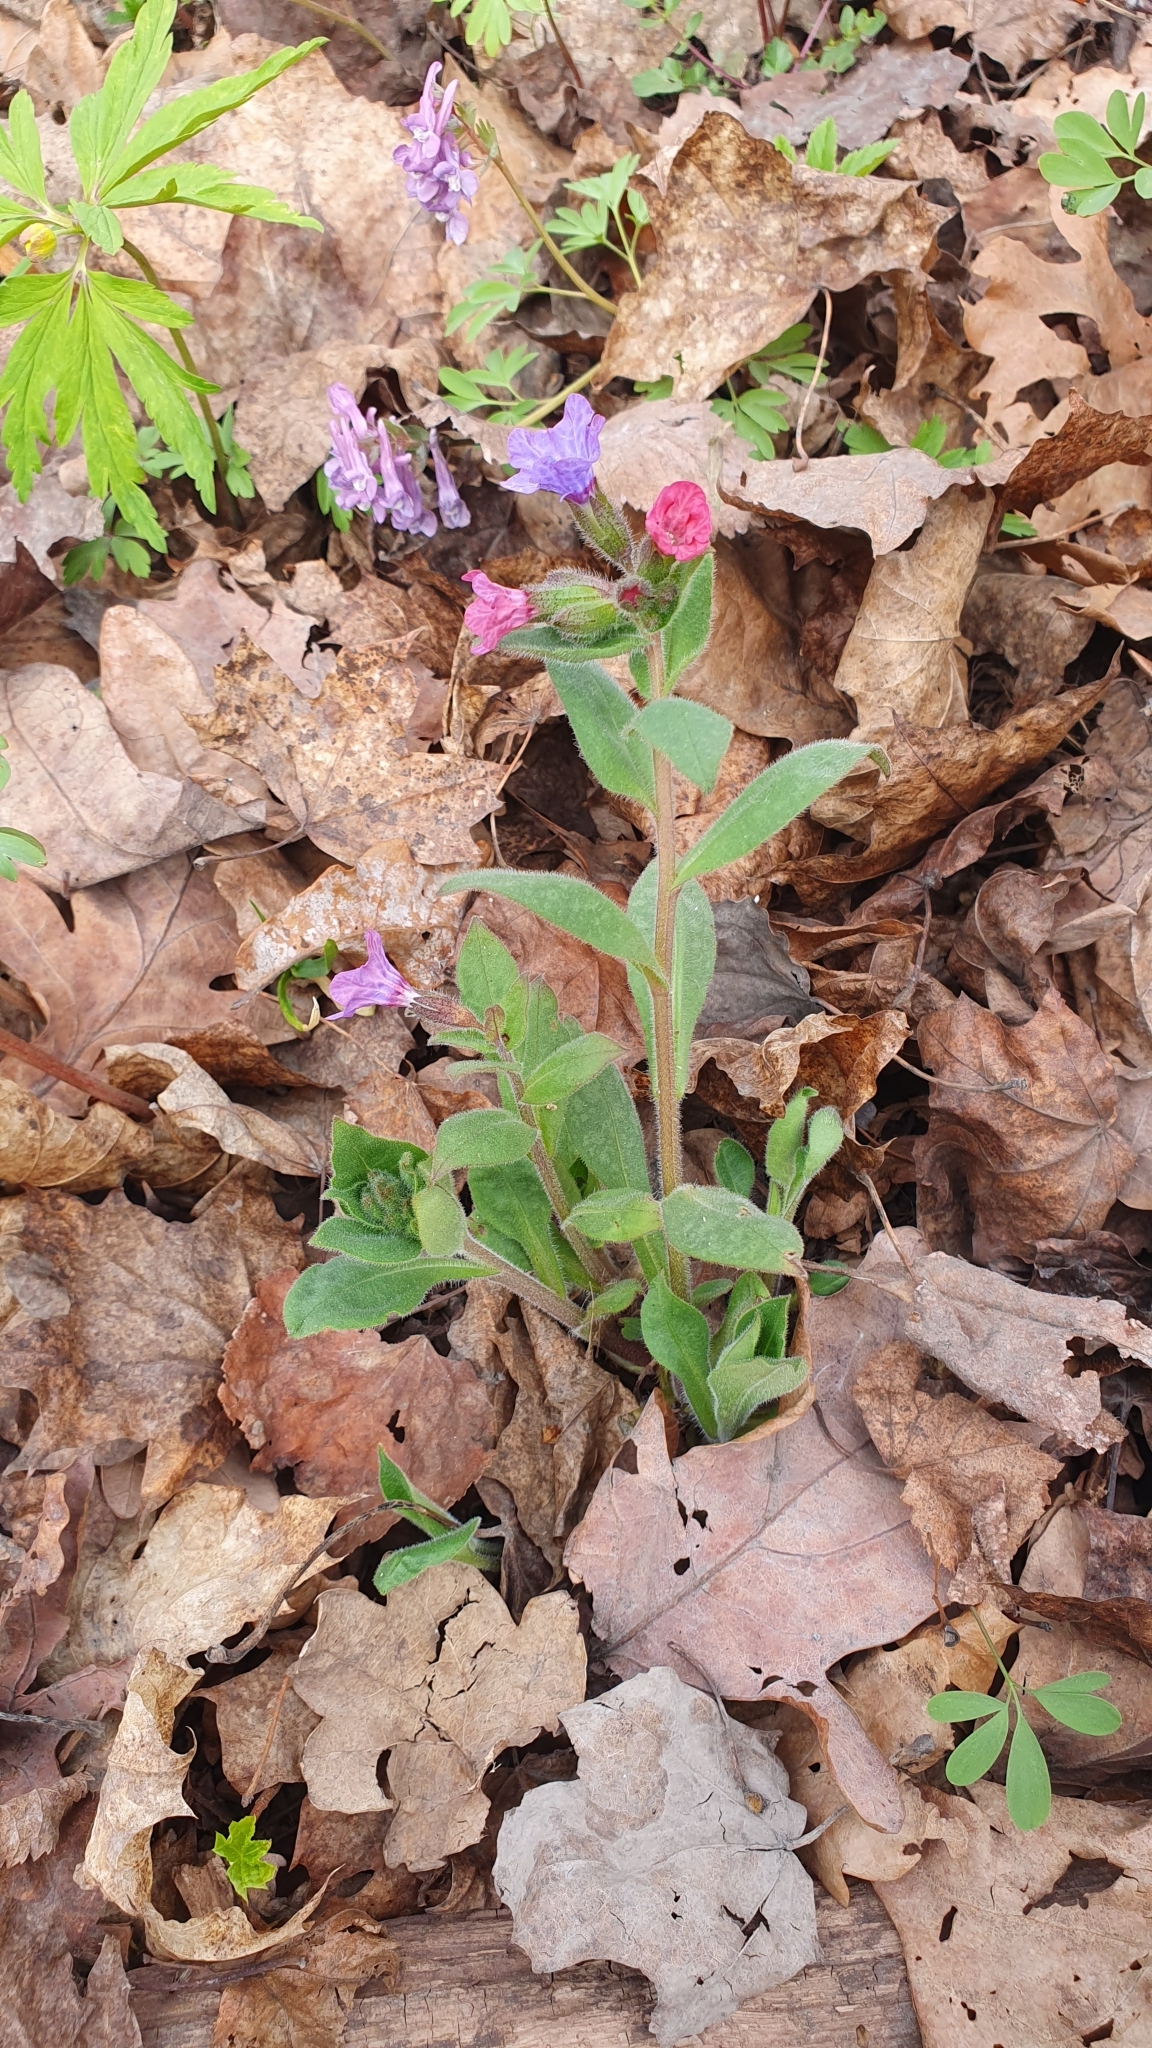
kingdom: Plantae
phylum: Tracheophyta
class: Magnoliopsida
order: Boraginales
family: Boraginaceae
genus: Pulmonaria
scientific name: Pulmonaria obscura
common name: Suffolk lungwort
